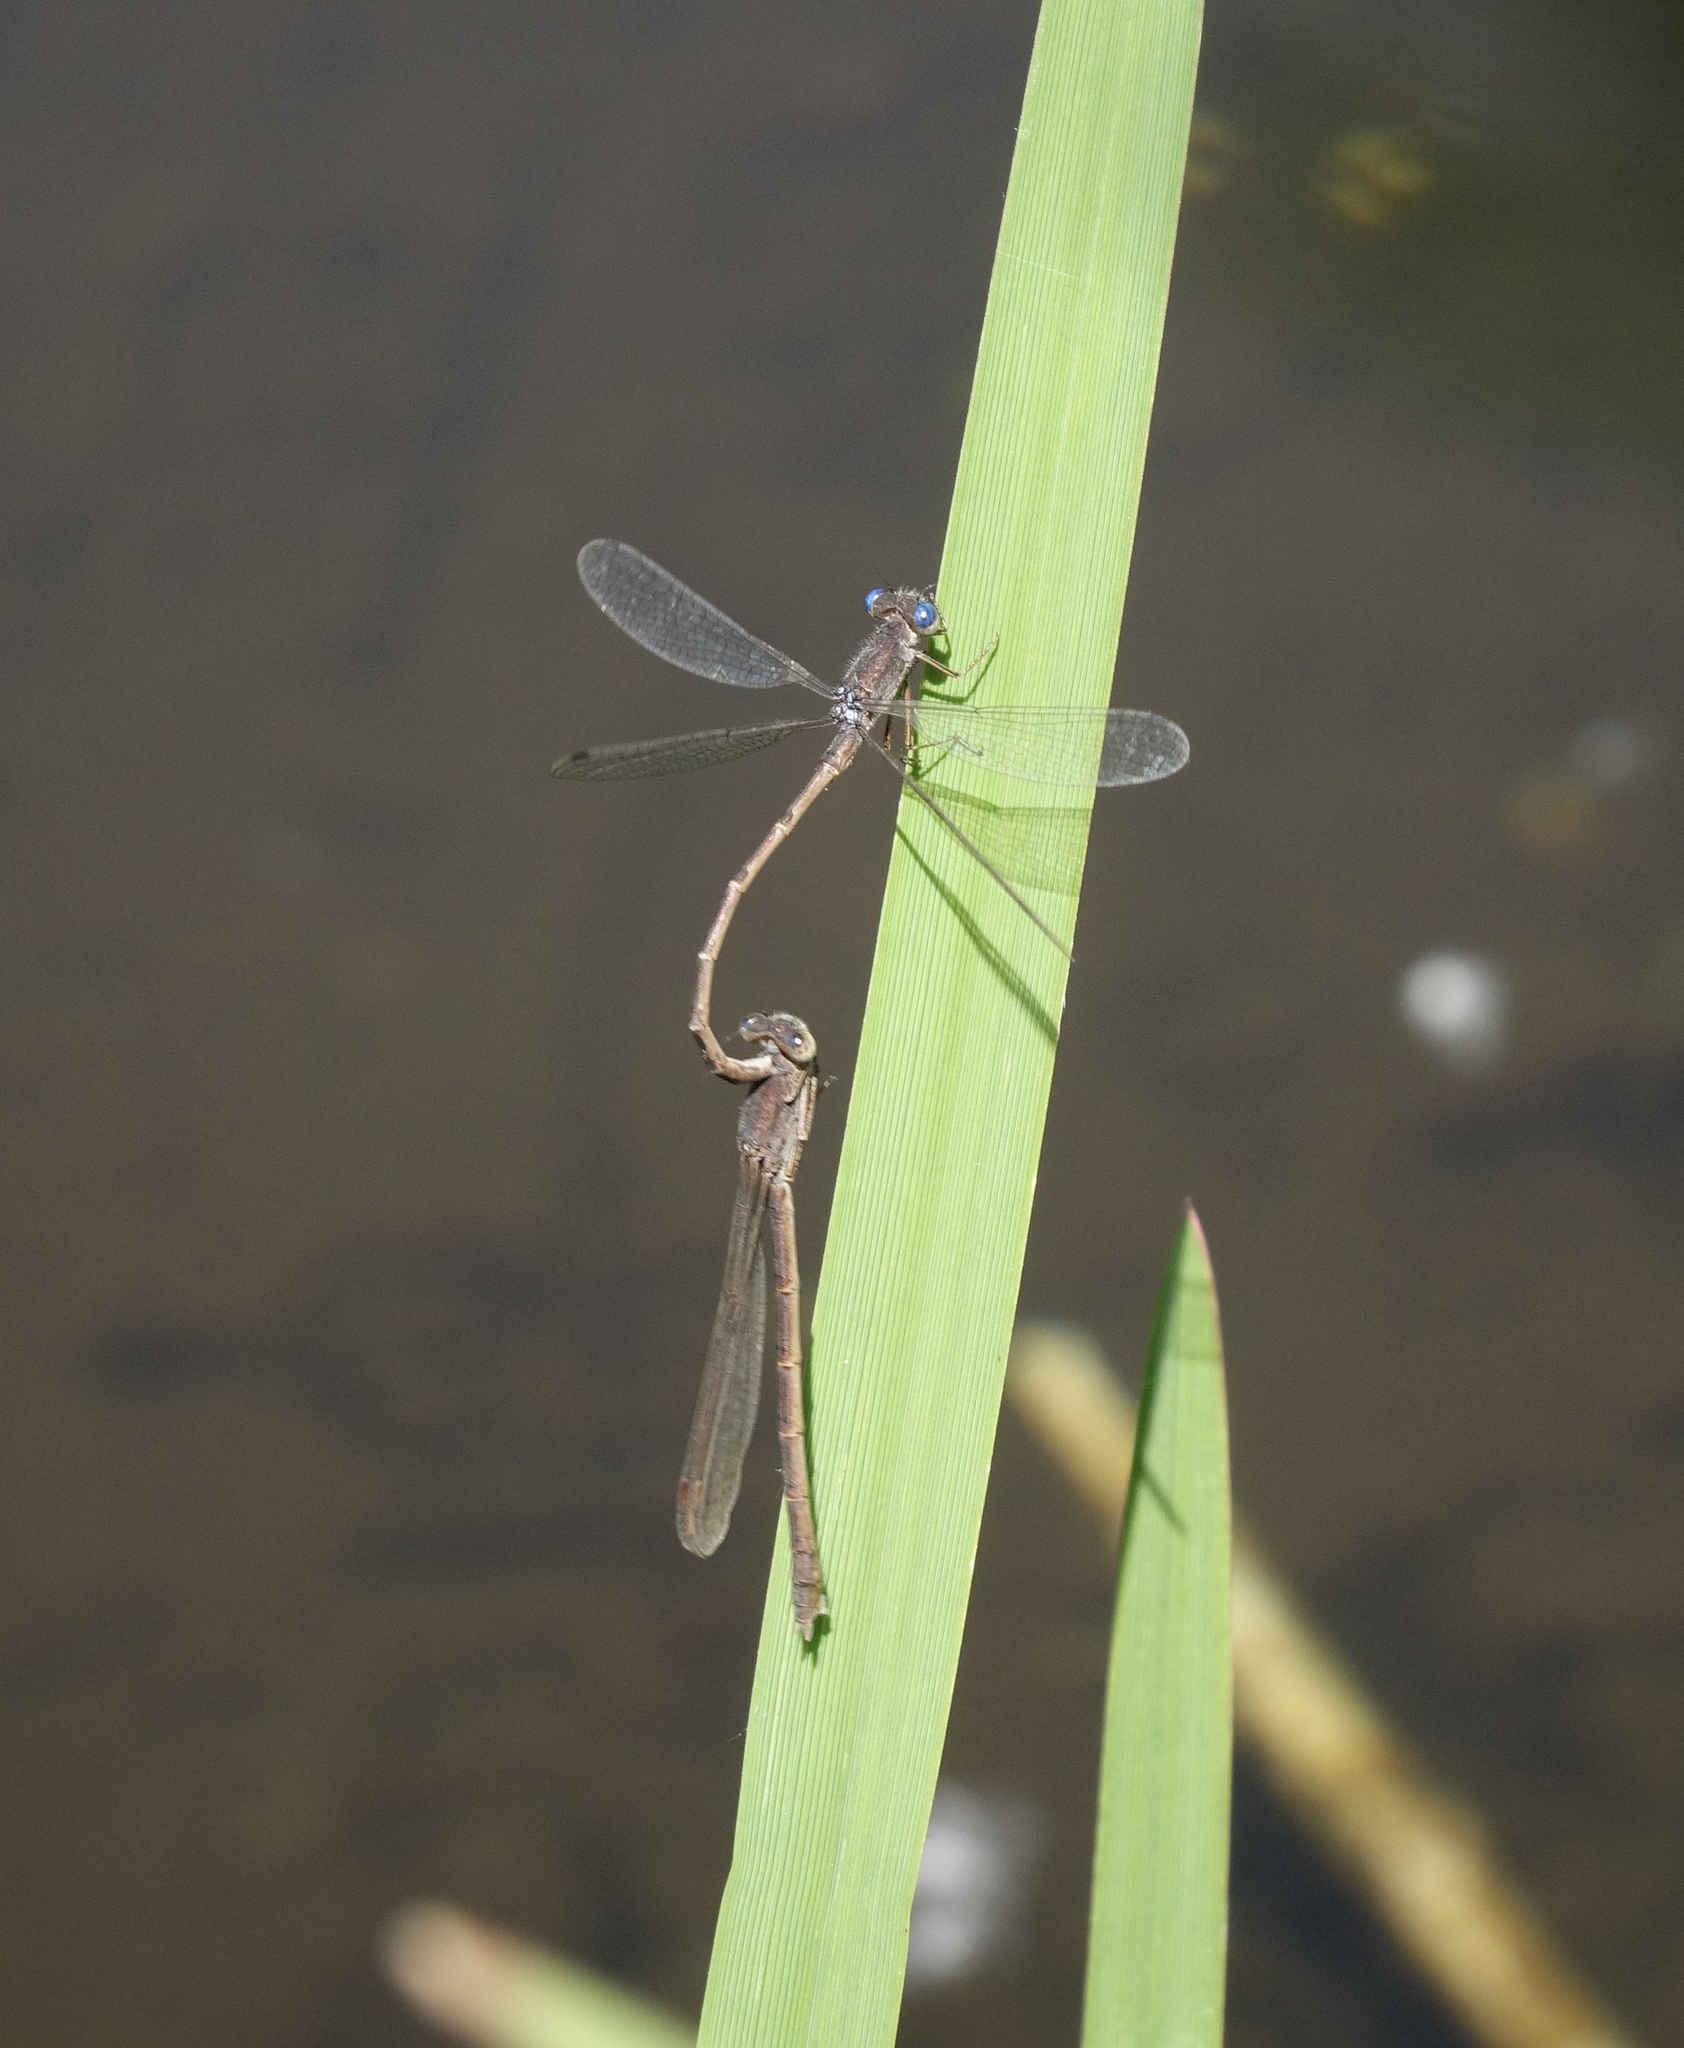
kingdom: Animalia
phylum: Arthropoda
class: Insecta
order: Odonata
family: Lestidae
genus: Sympecma
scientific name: Sympecma paedisca
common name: Siberian winter damsel
